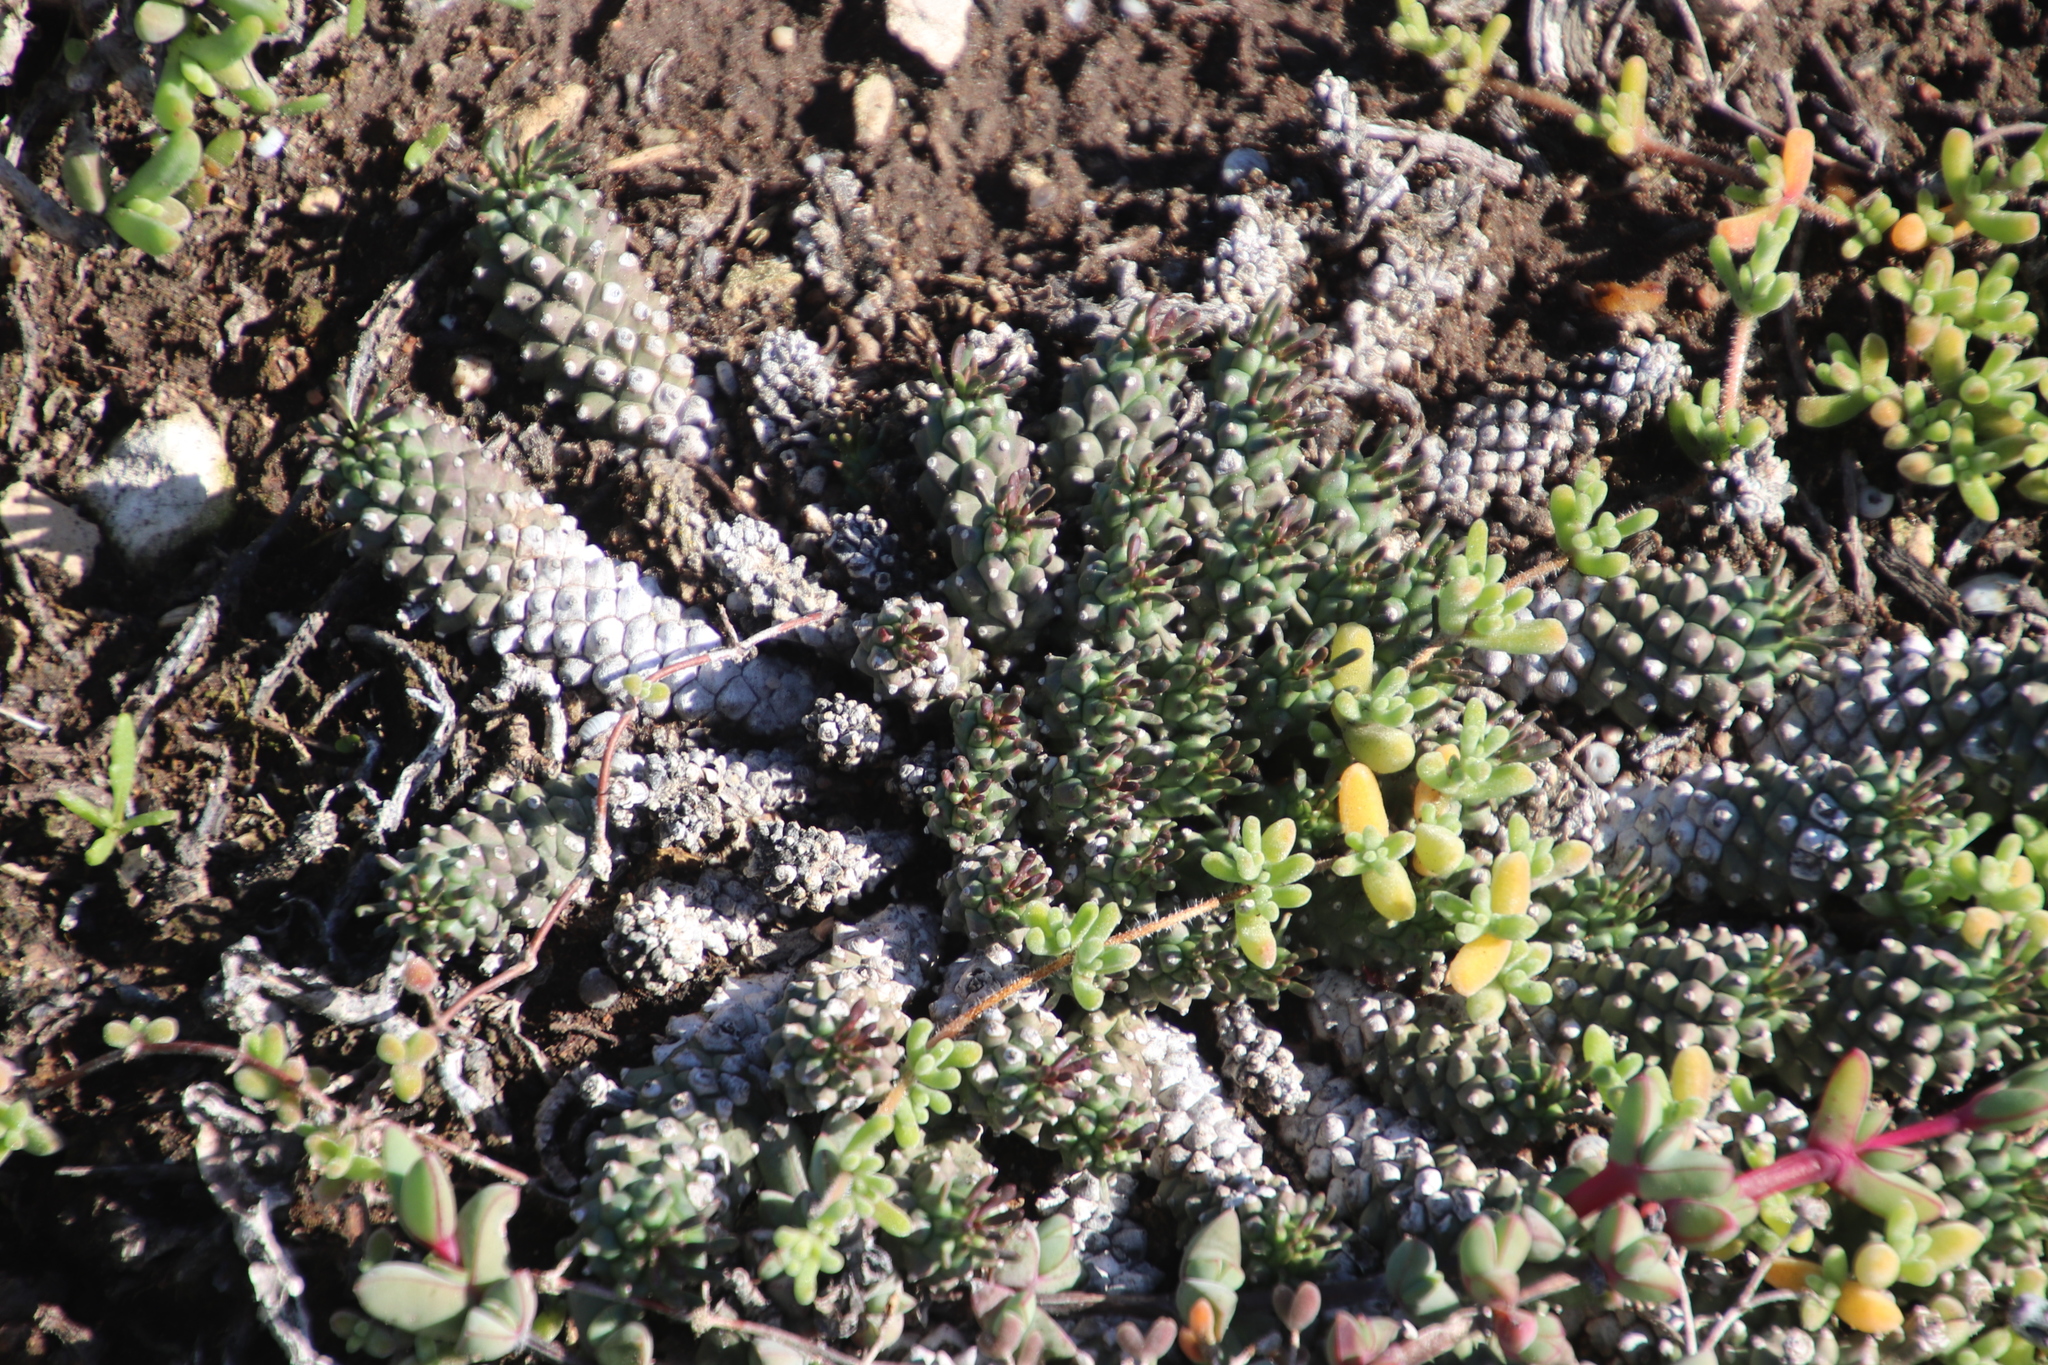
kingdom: Plantae
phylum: Tracheophyta
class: Magnoliopsida
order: Malpighiales
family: Euphorbiaceae
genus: Euphorbia
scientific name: Euphorbia caput-medusae
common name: Medusa's-head
